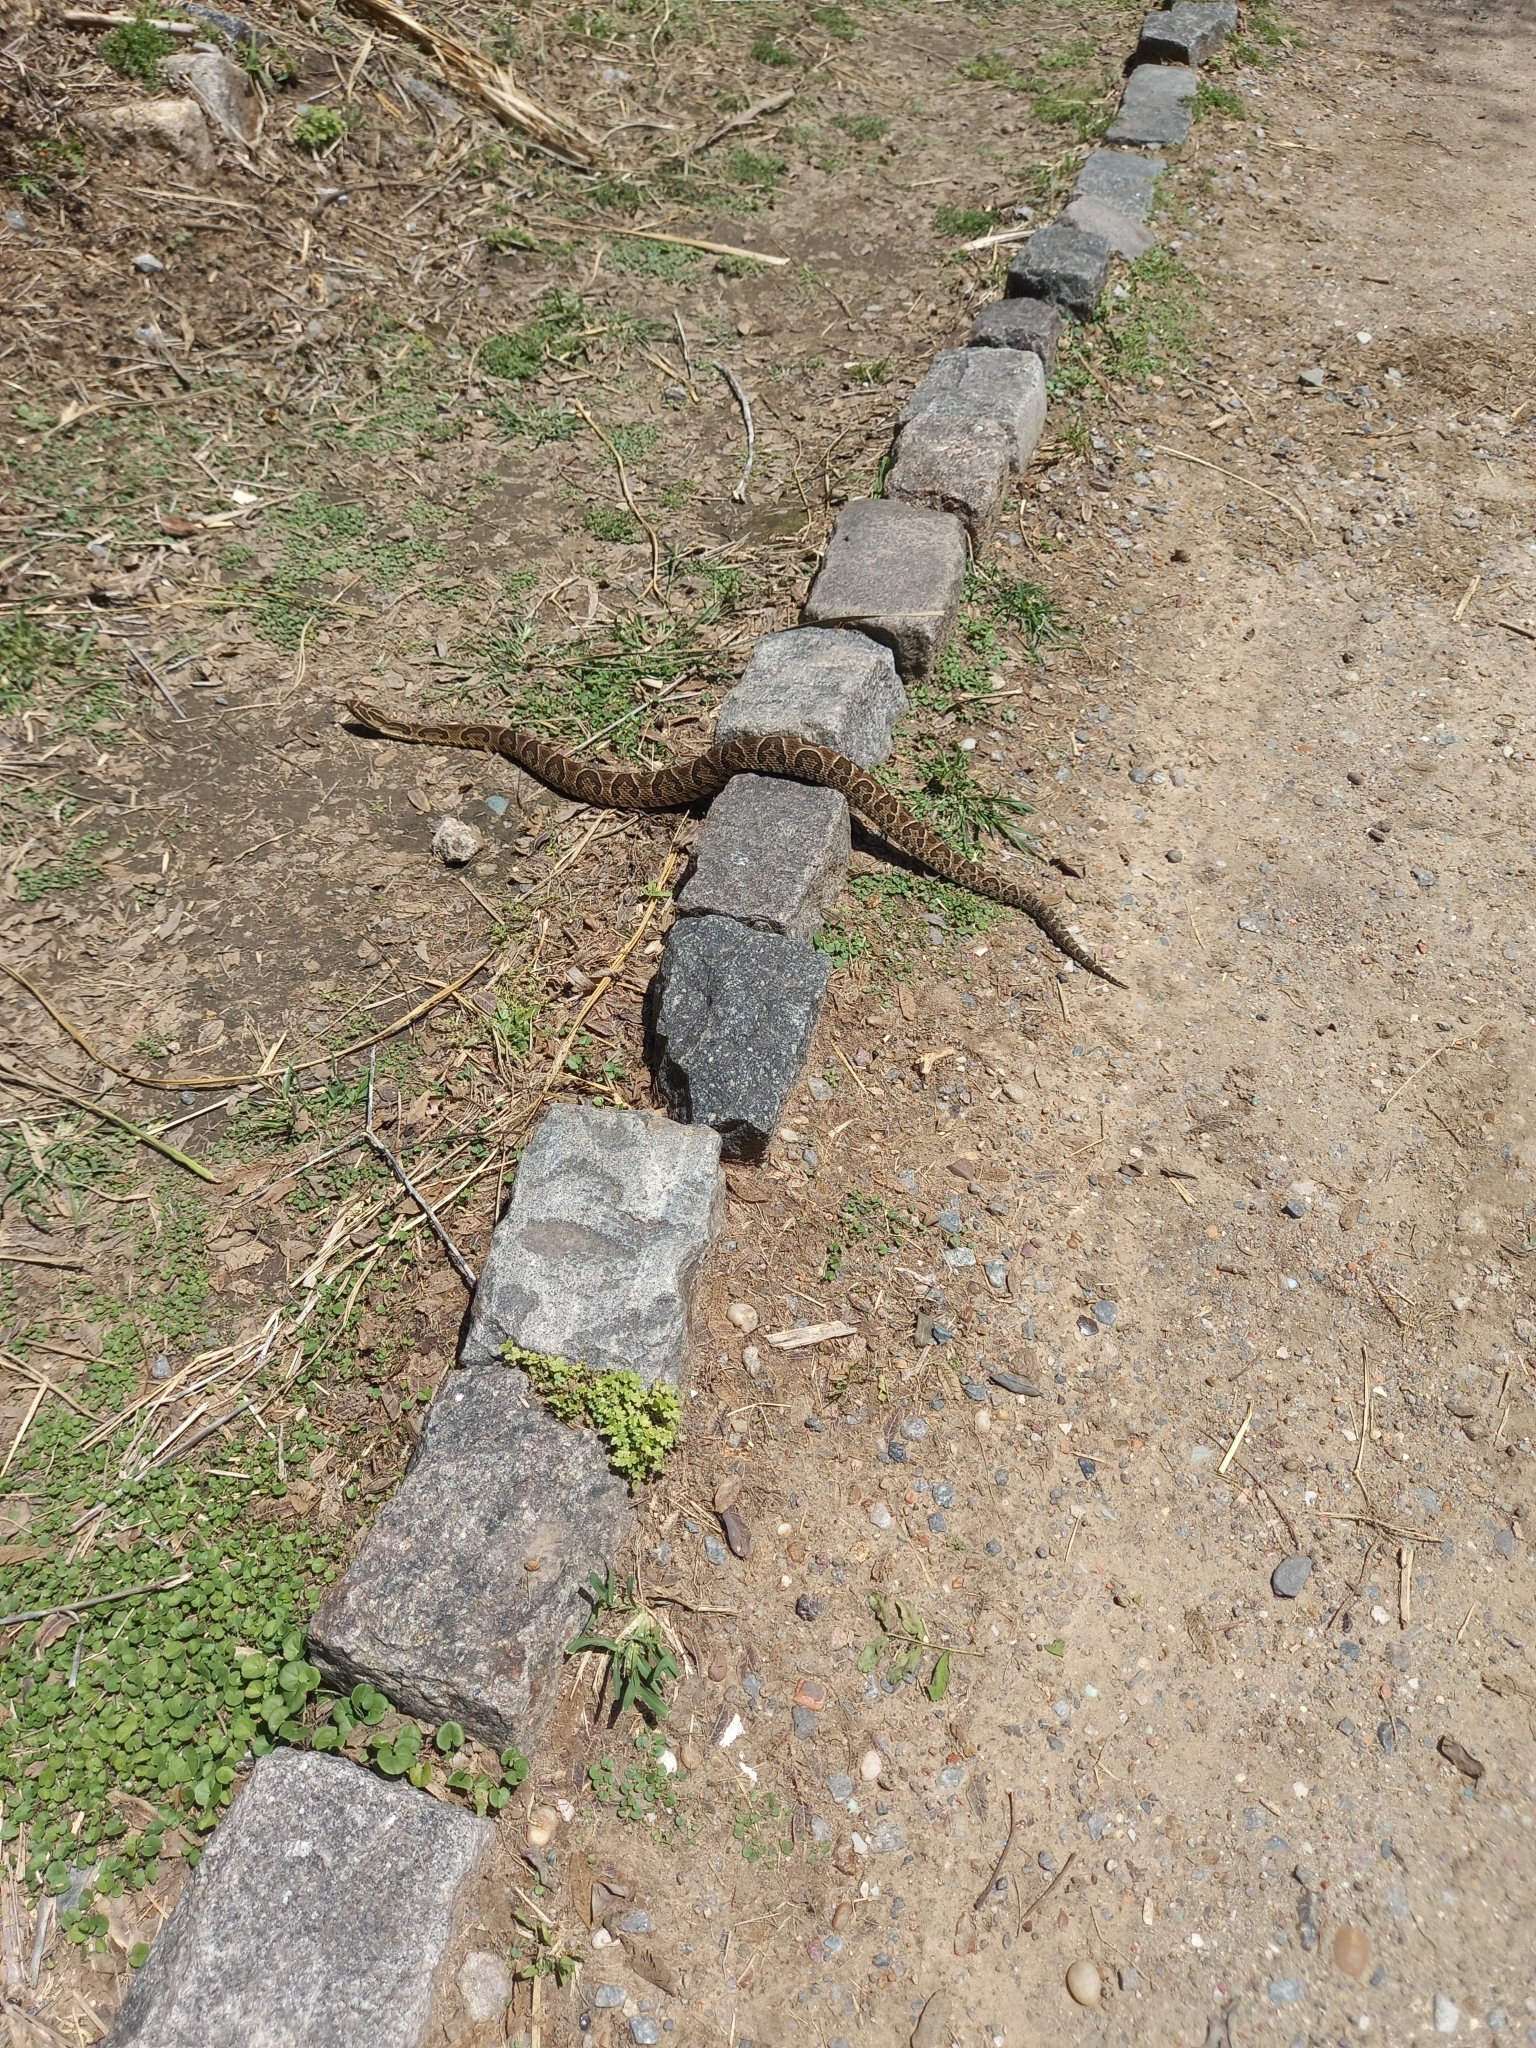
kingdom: Animalia
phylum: Chordata
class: Squamata
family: Viperidae
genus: Bothrops
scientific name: Bothrops alternatus
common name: Urutu
